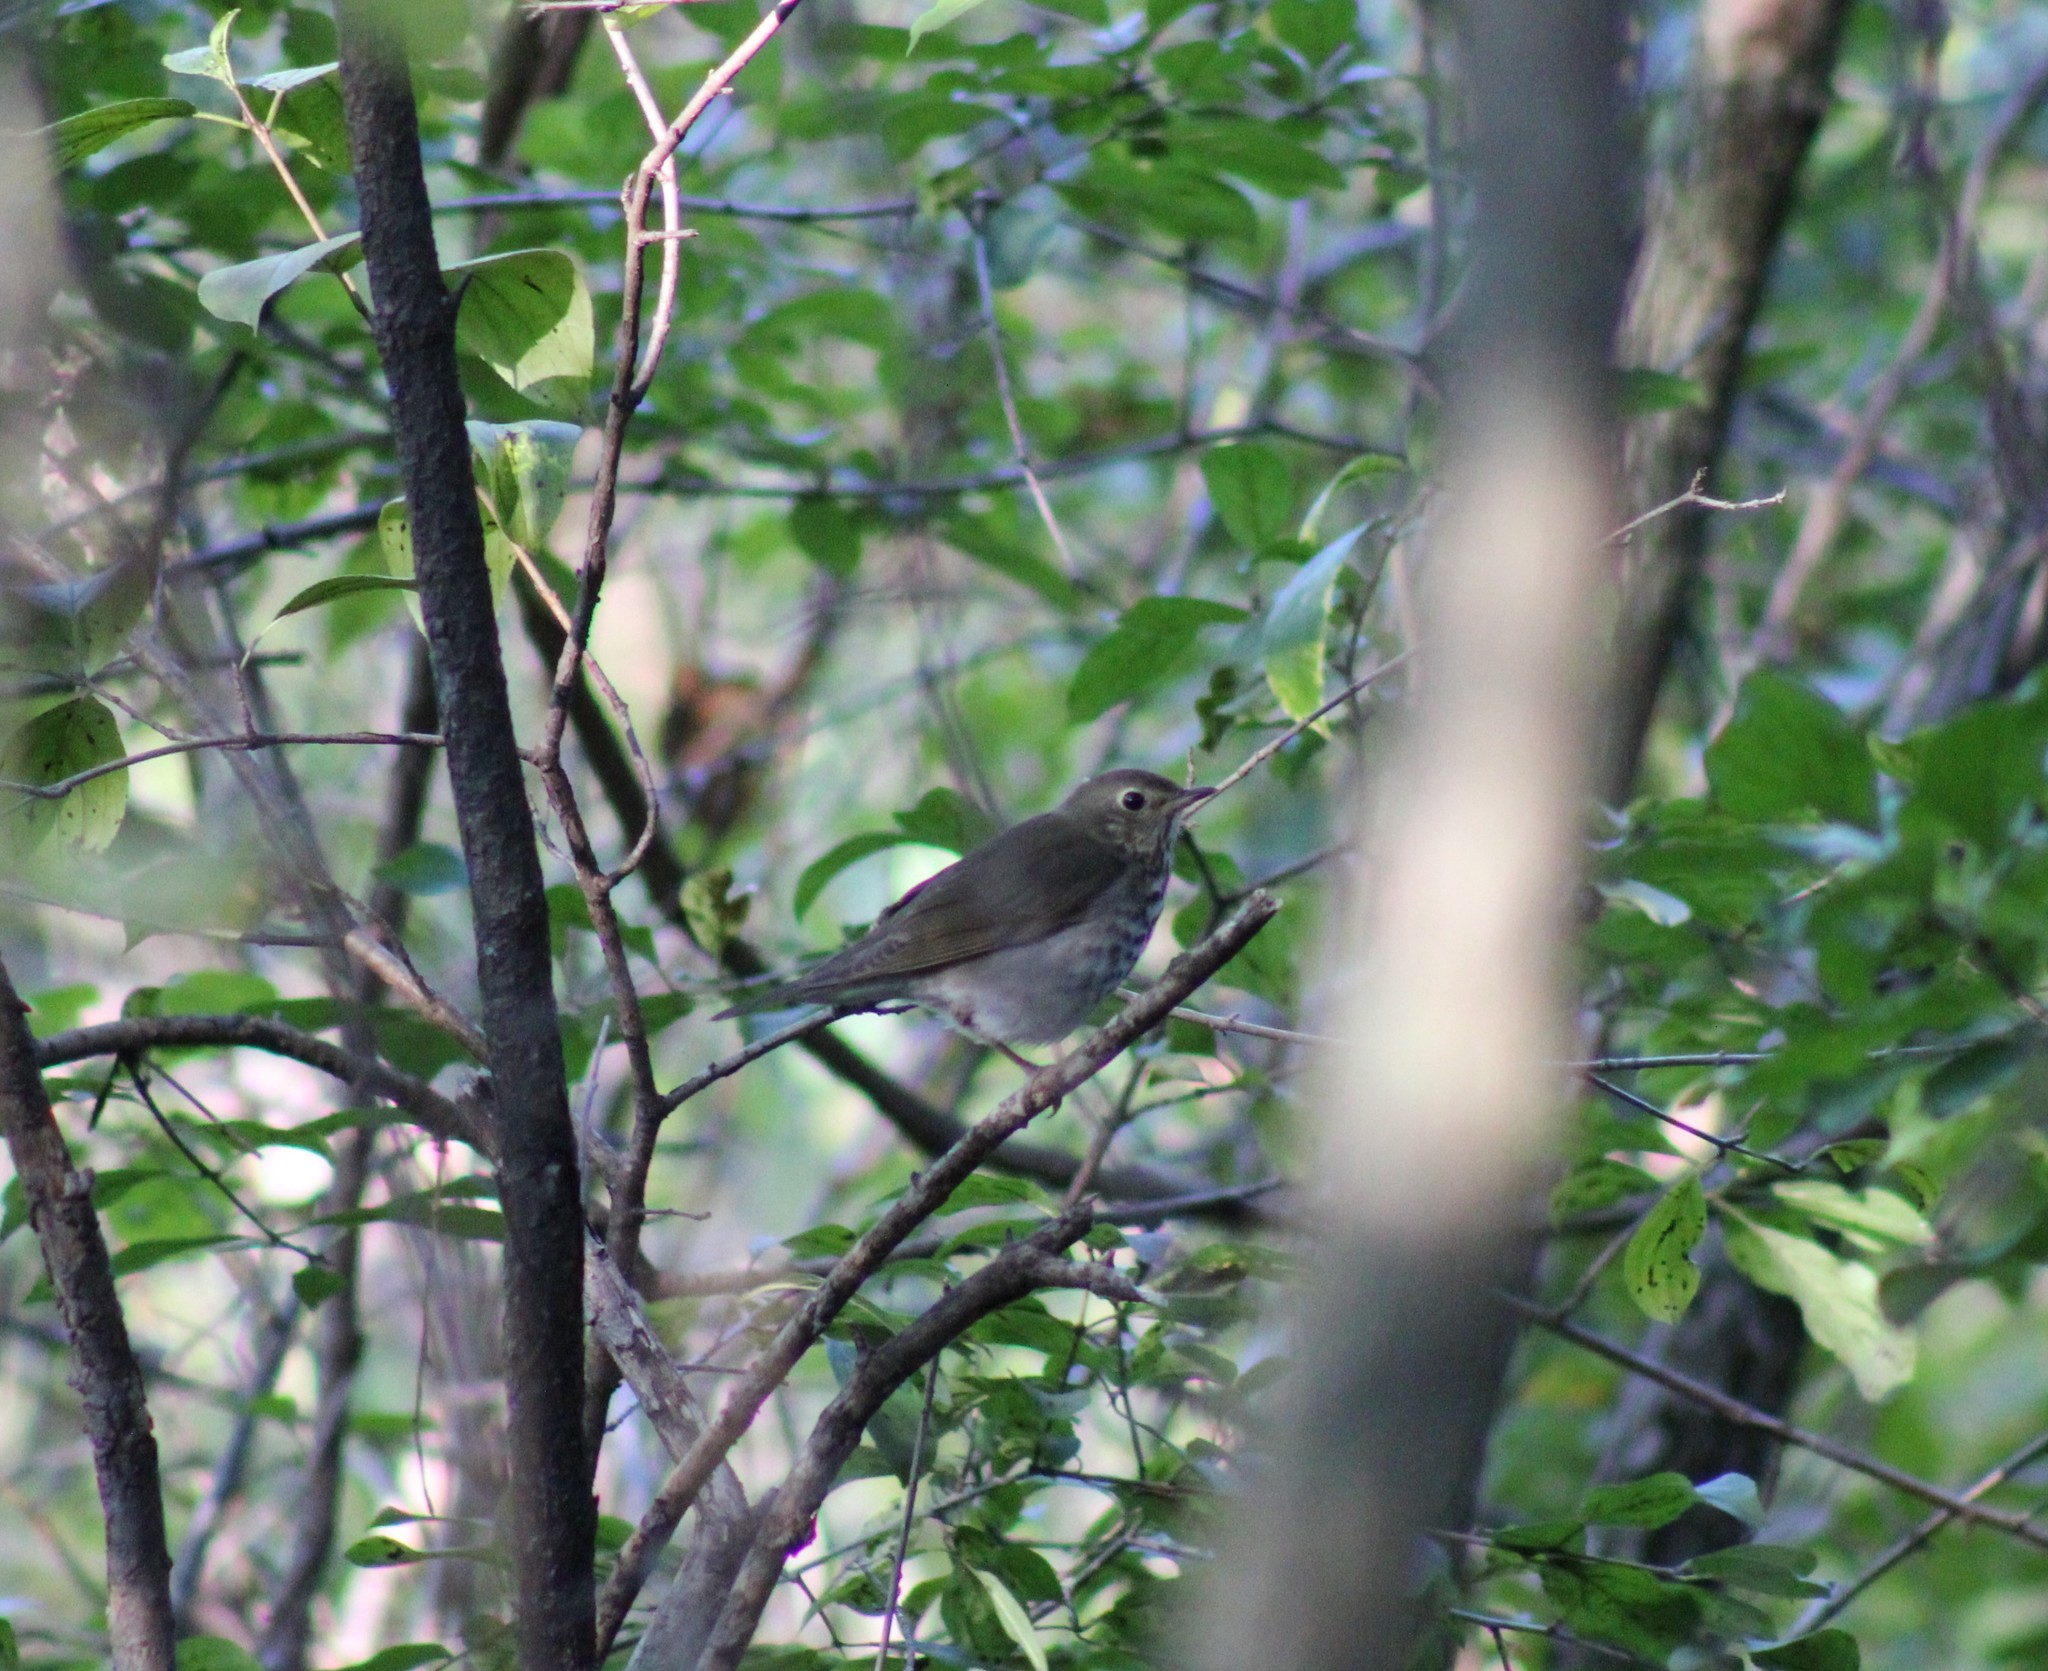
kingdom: Animalia
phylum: Chordata
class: Aves
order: Passeriformes
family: Turdidae
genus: Catharus
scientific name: Catharus minimus
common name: Grey-cheeked thrush
